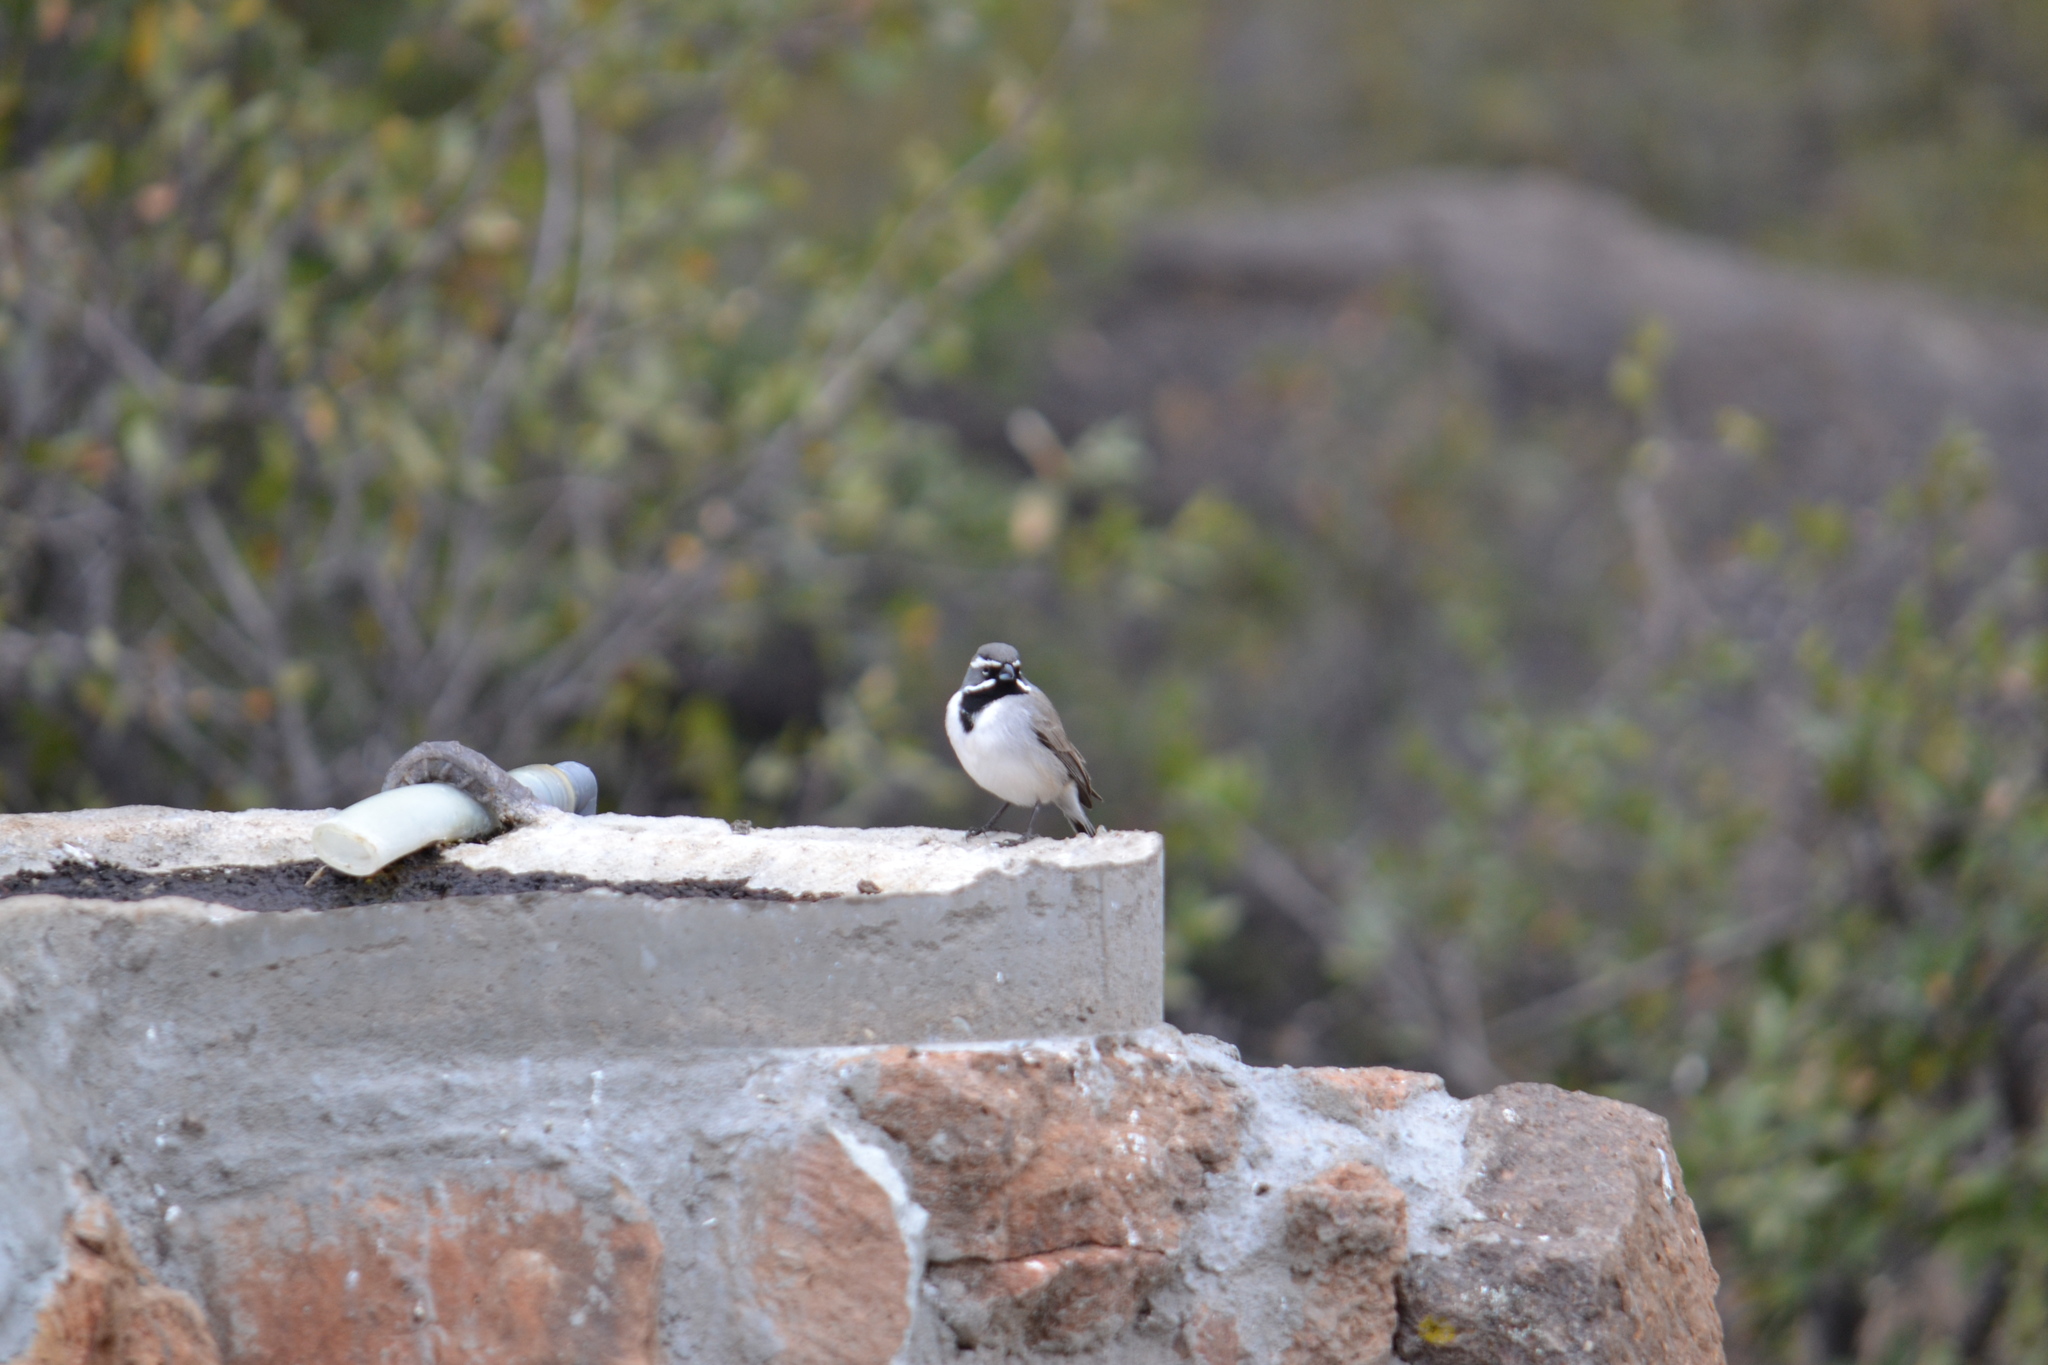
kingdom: Animalia
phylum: Chordata
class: Aves
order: Passeriformes
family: Passerellidae
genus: Amphispiza
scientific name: Amphispiza bilineata
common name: Black-throated sparrow
